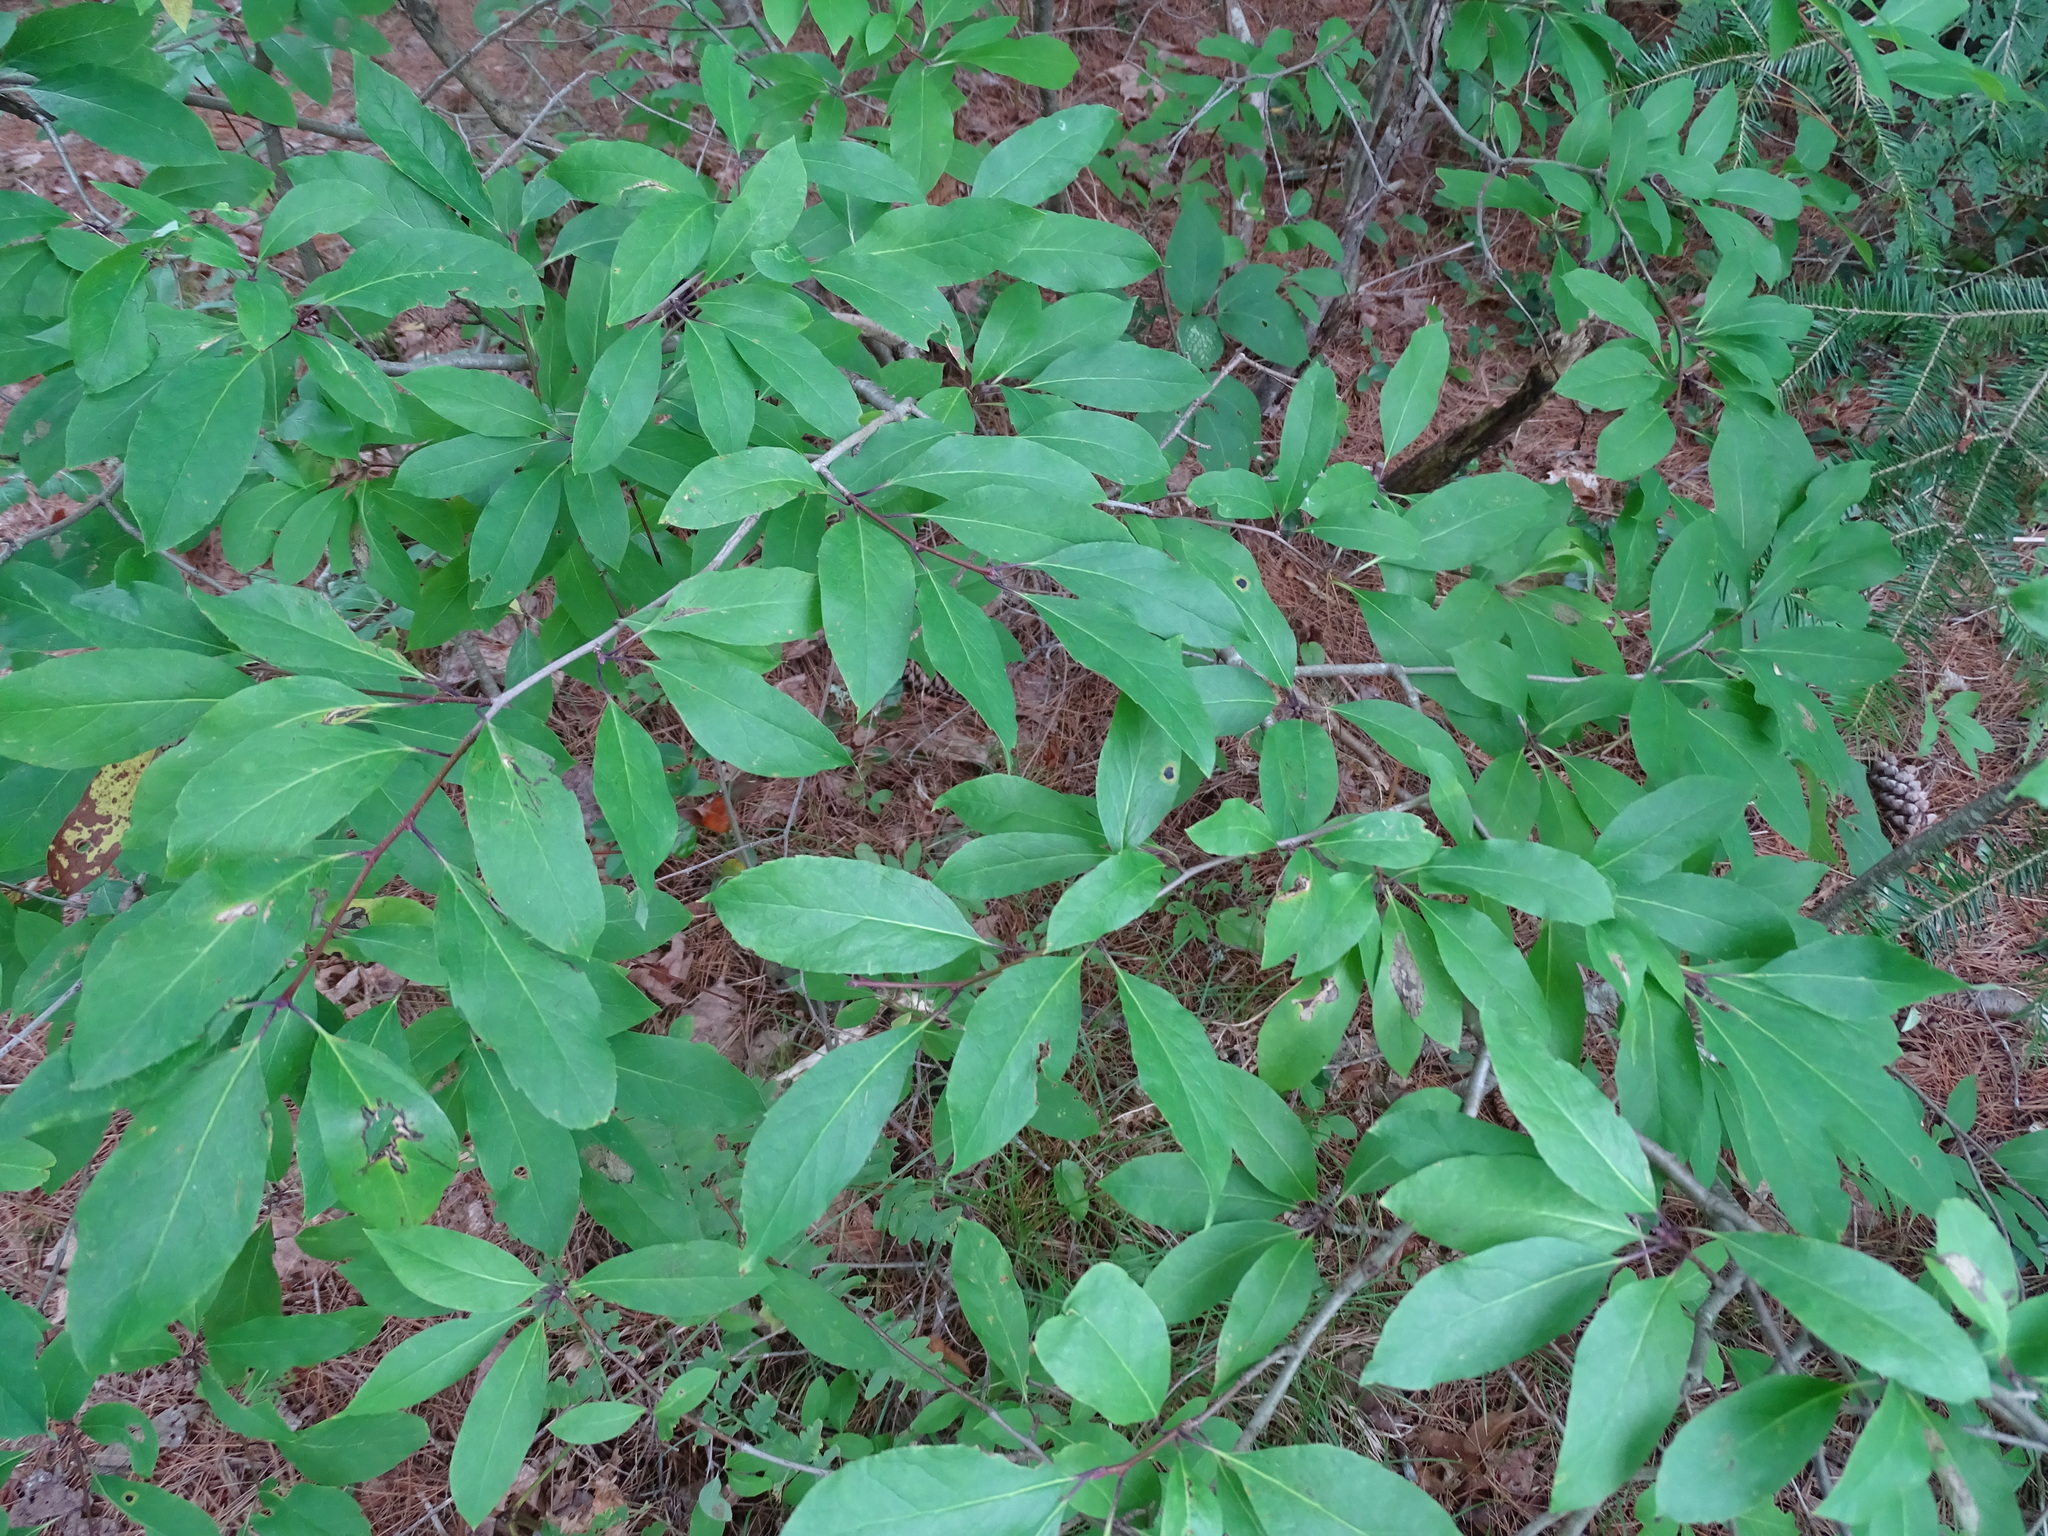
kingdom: Plantae
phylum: Tracheophyta
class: Magnoliopsida
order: Aquifoliales
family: Aquifoliaceae
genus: Ilex
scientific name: Ilex mucronata
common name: Catberry
